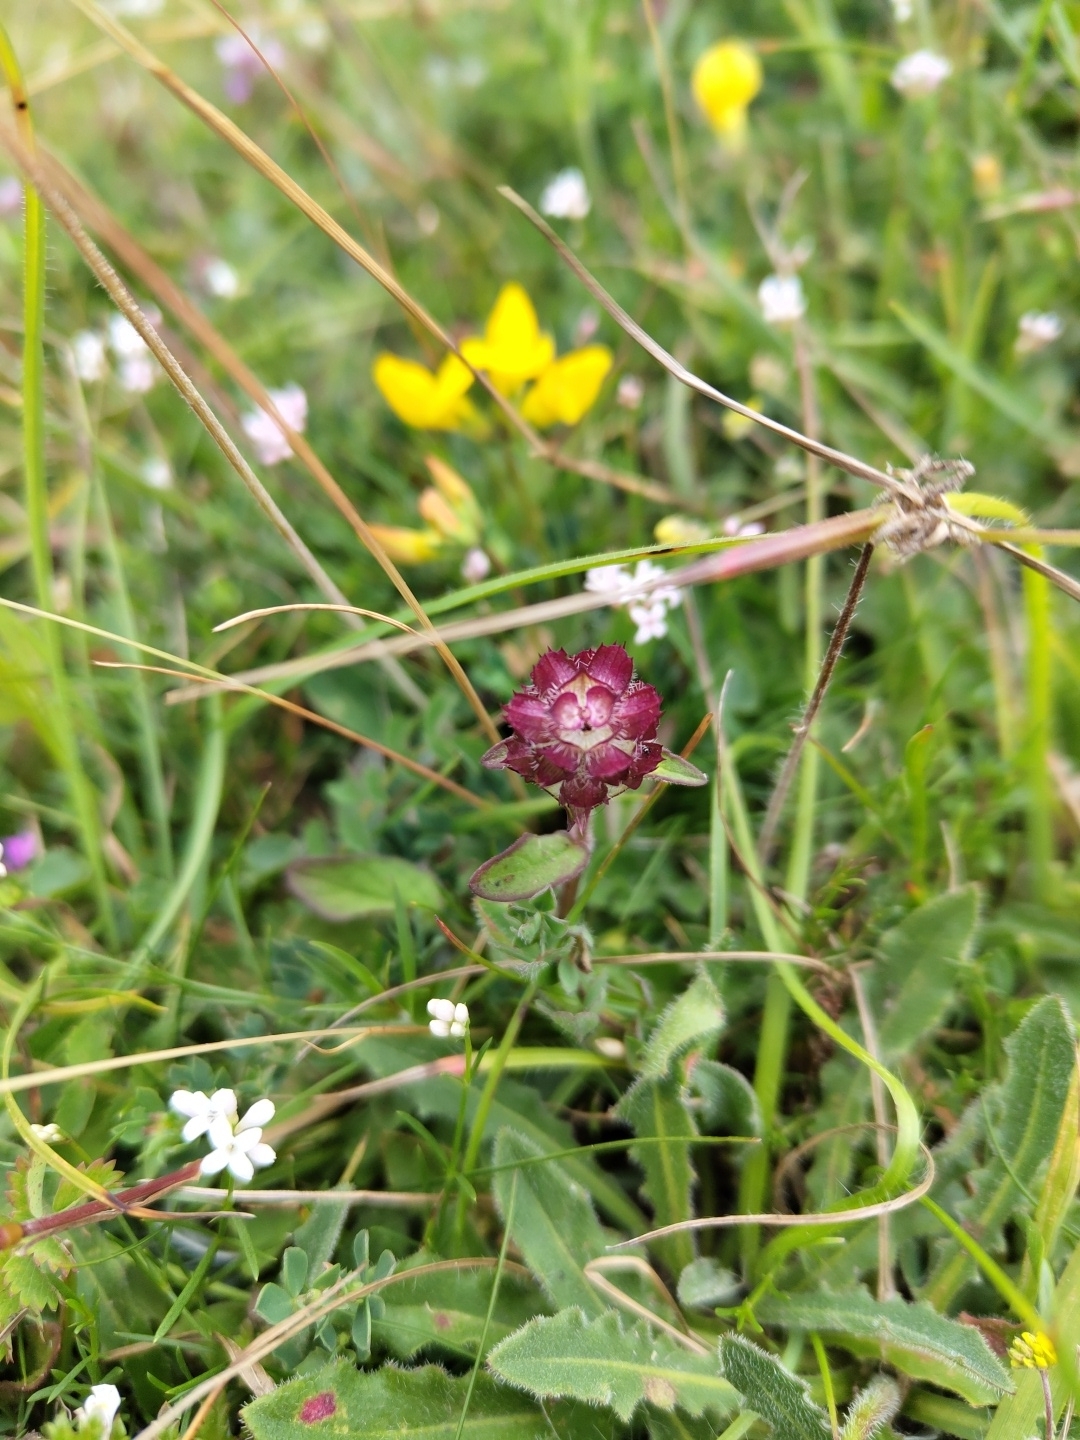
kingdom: Plantae
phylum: Tracheophyta
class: Magnoliopsida
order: Lamiales
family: Lamiaceae
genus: Prunella
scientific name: Prunella vulgaris
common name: Heal-all
